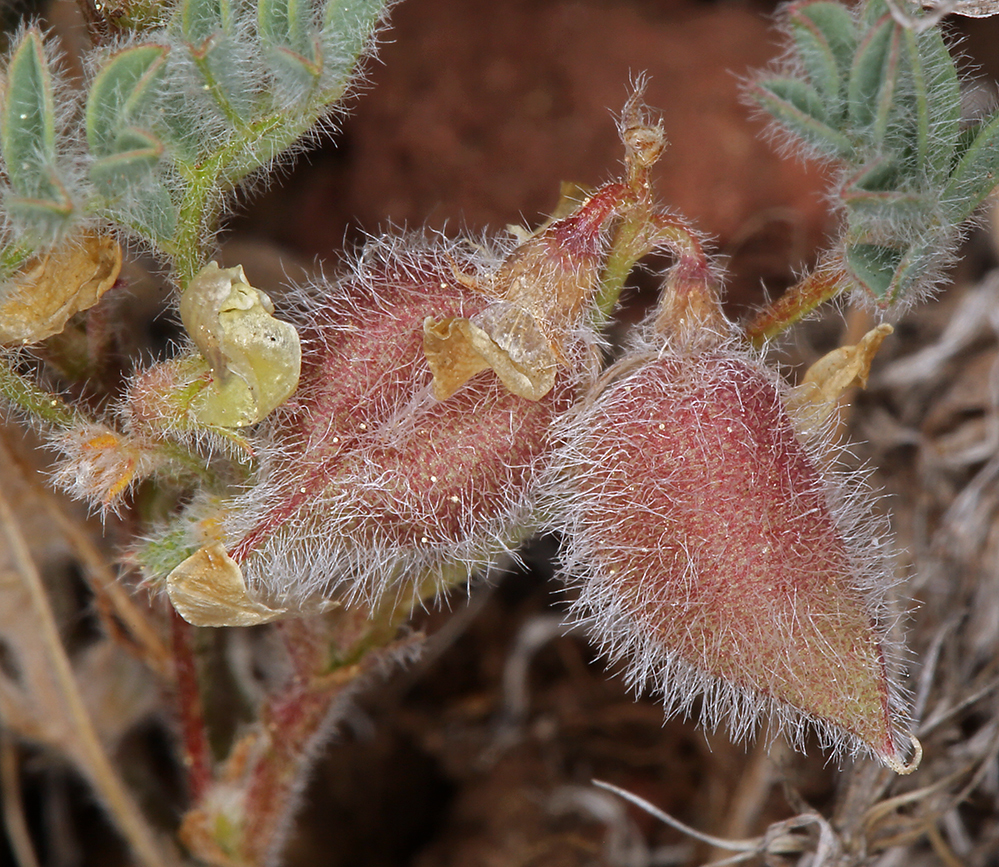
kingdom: Plantae
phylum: Tracheophyta
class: Magnoliopsida
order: Fabales
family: Fabaceae
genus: Astragalus
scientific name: Astragalus pulsiferae
